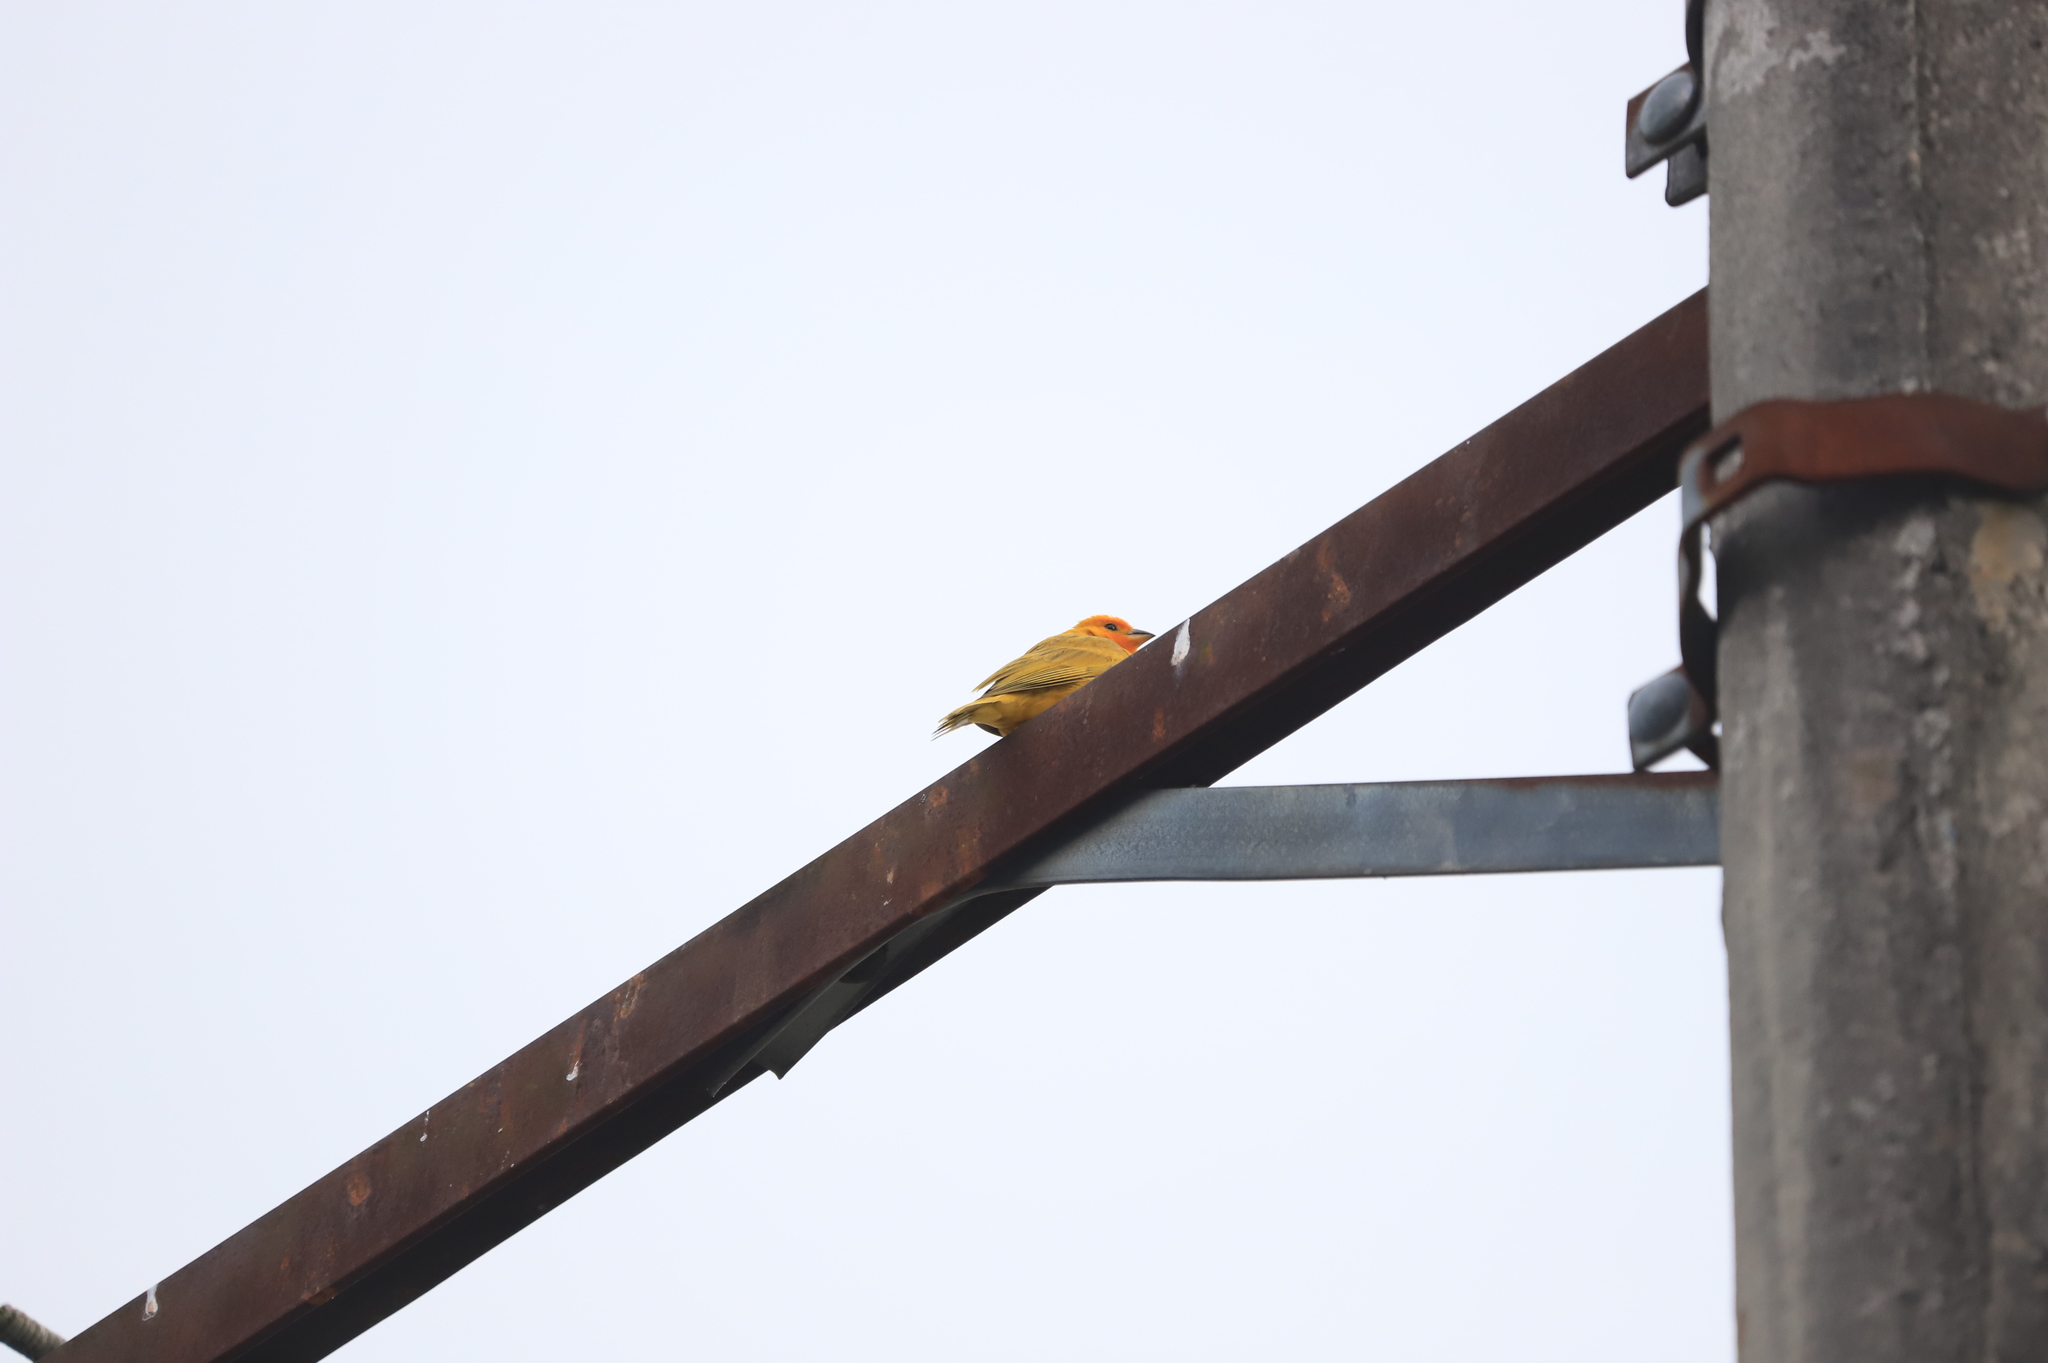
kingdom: Animalia
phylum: Chordata
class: Aves
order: Passeriformes
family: Thraupidae
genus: Sicalis
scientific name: Sicalis flaveola
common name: Saffron finch
